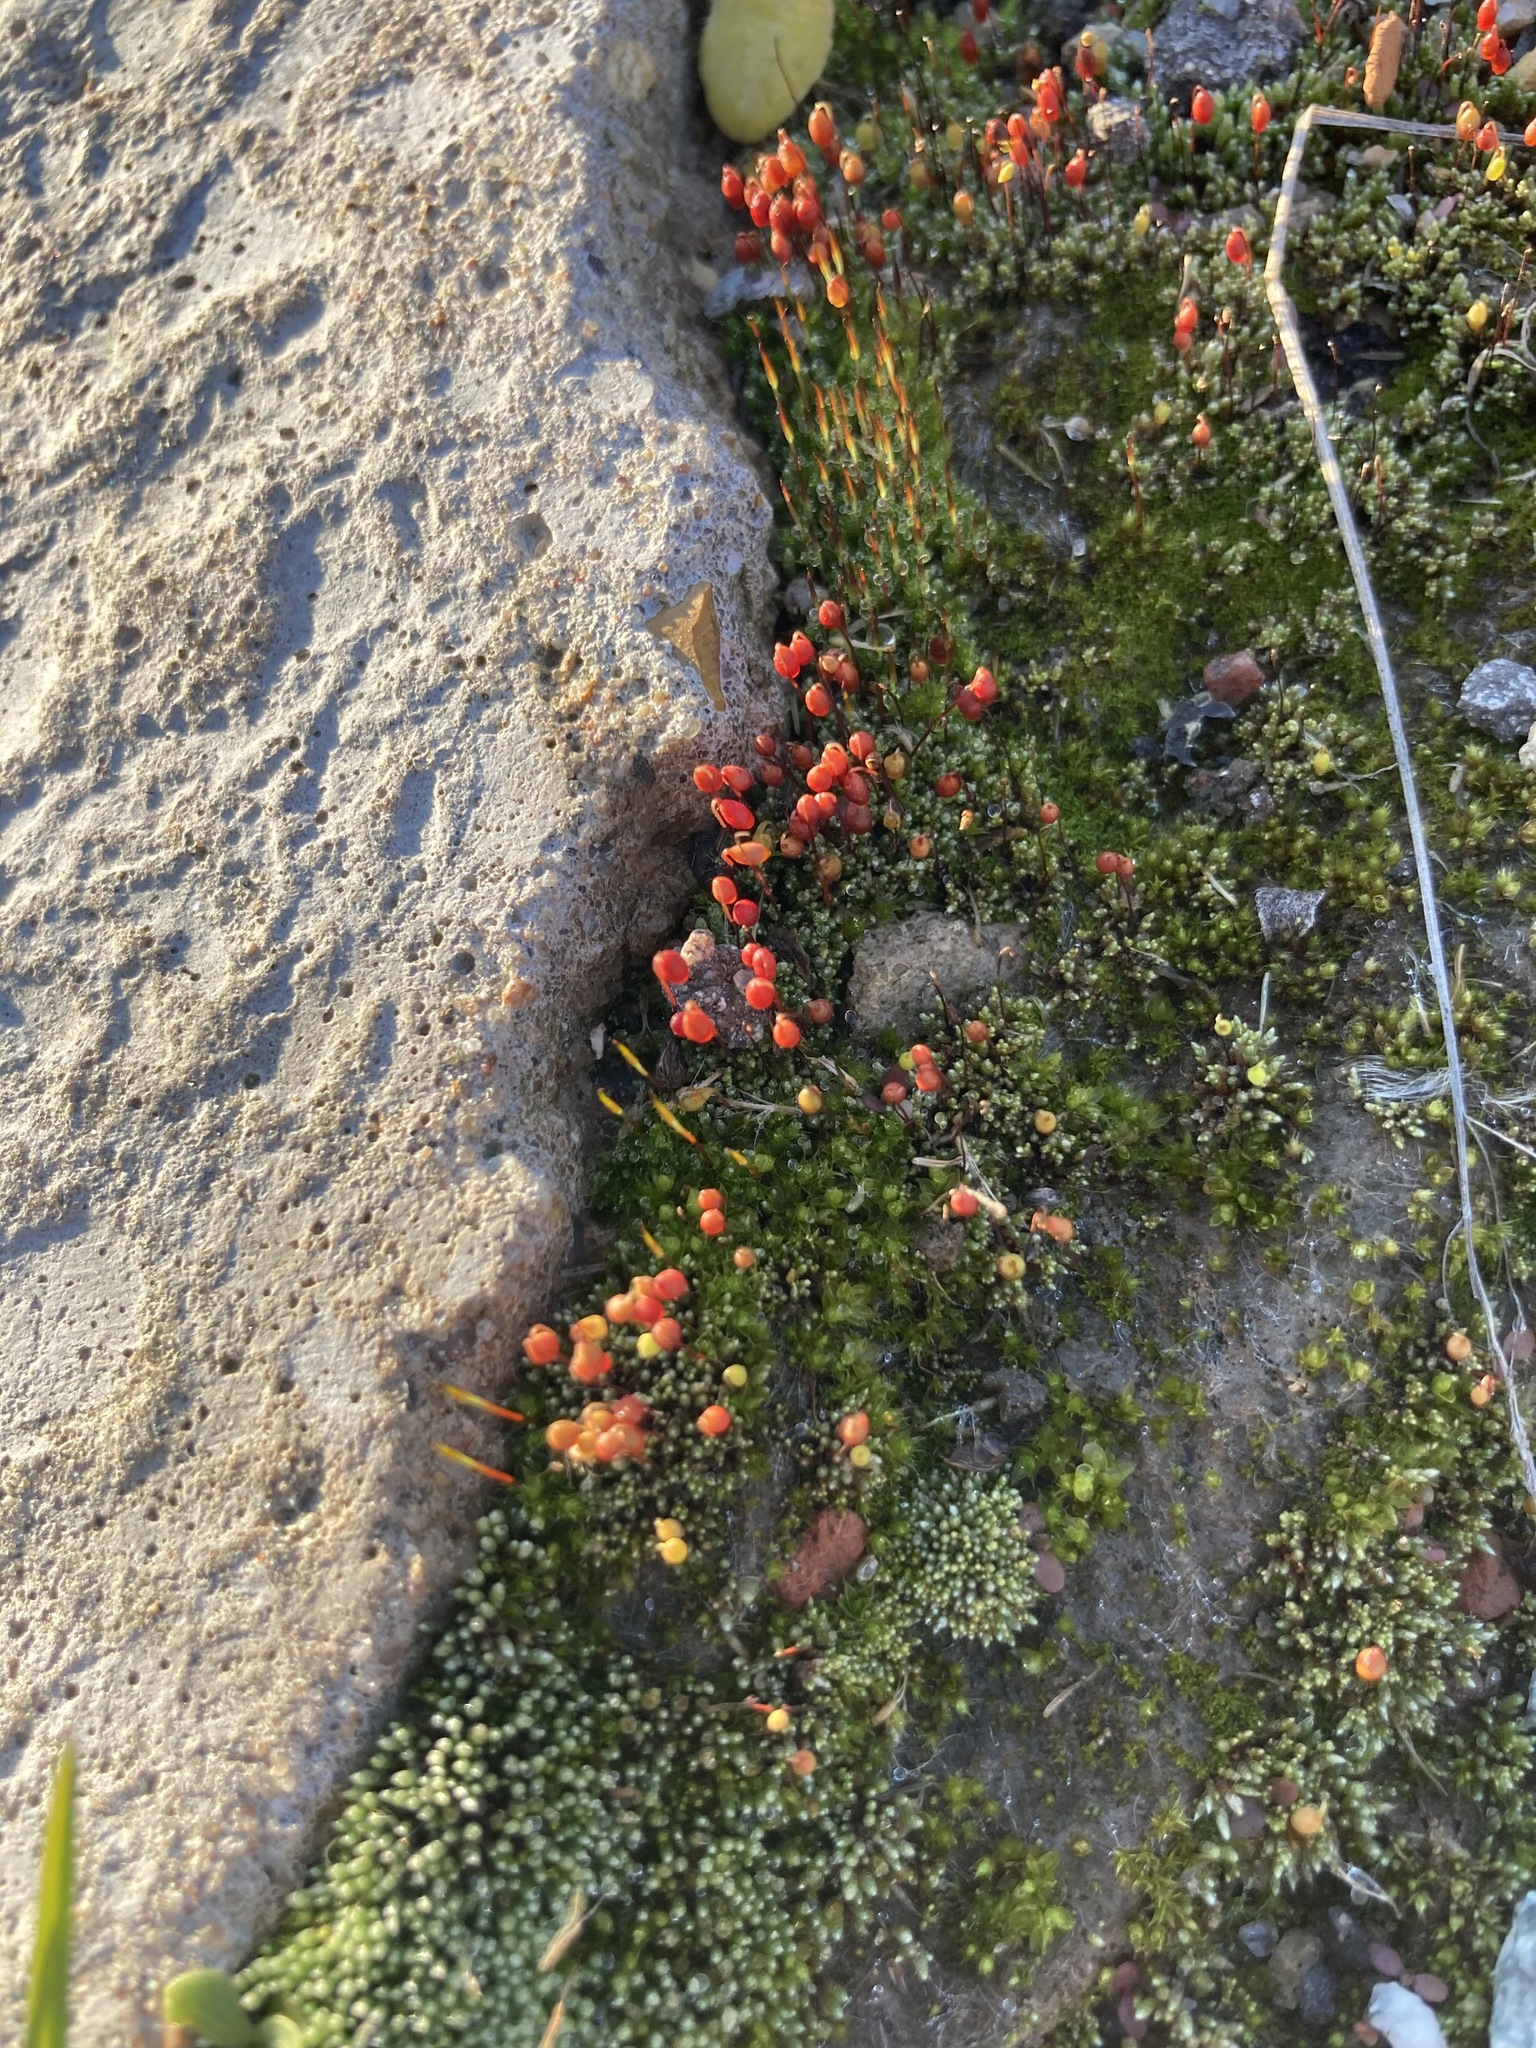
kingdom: Plantae
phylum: Bryophyta
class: Bryopsida
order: Bryales
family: Bryaceae
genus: Bryum
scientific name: Bryum argenteum
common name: Silver-moss
